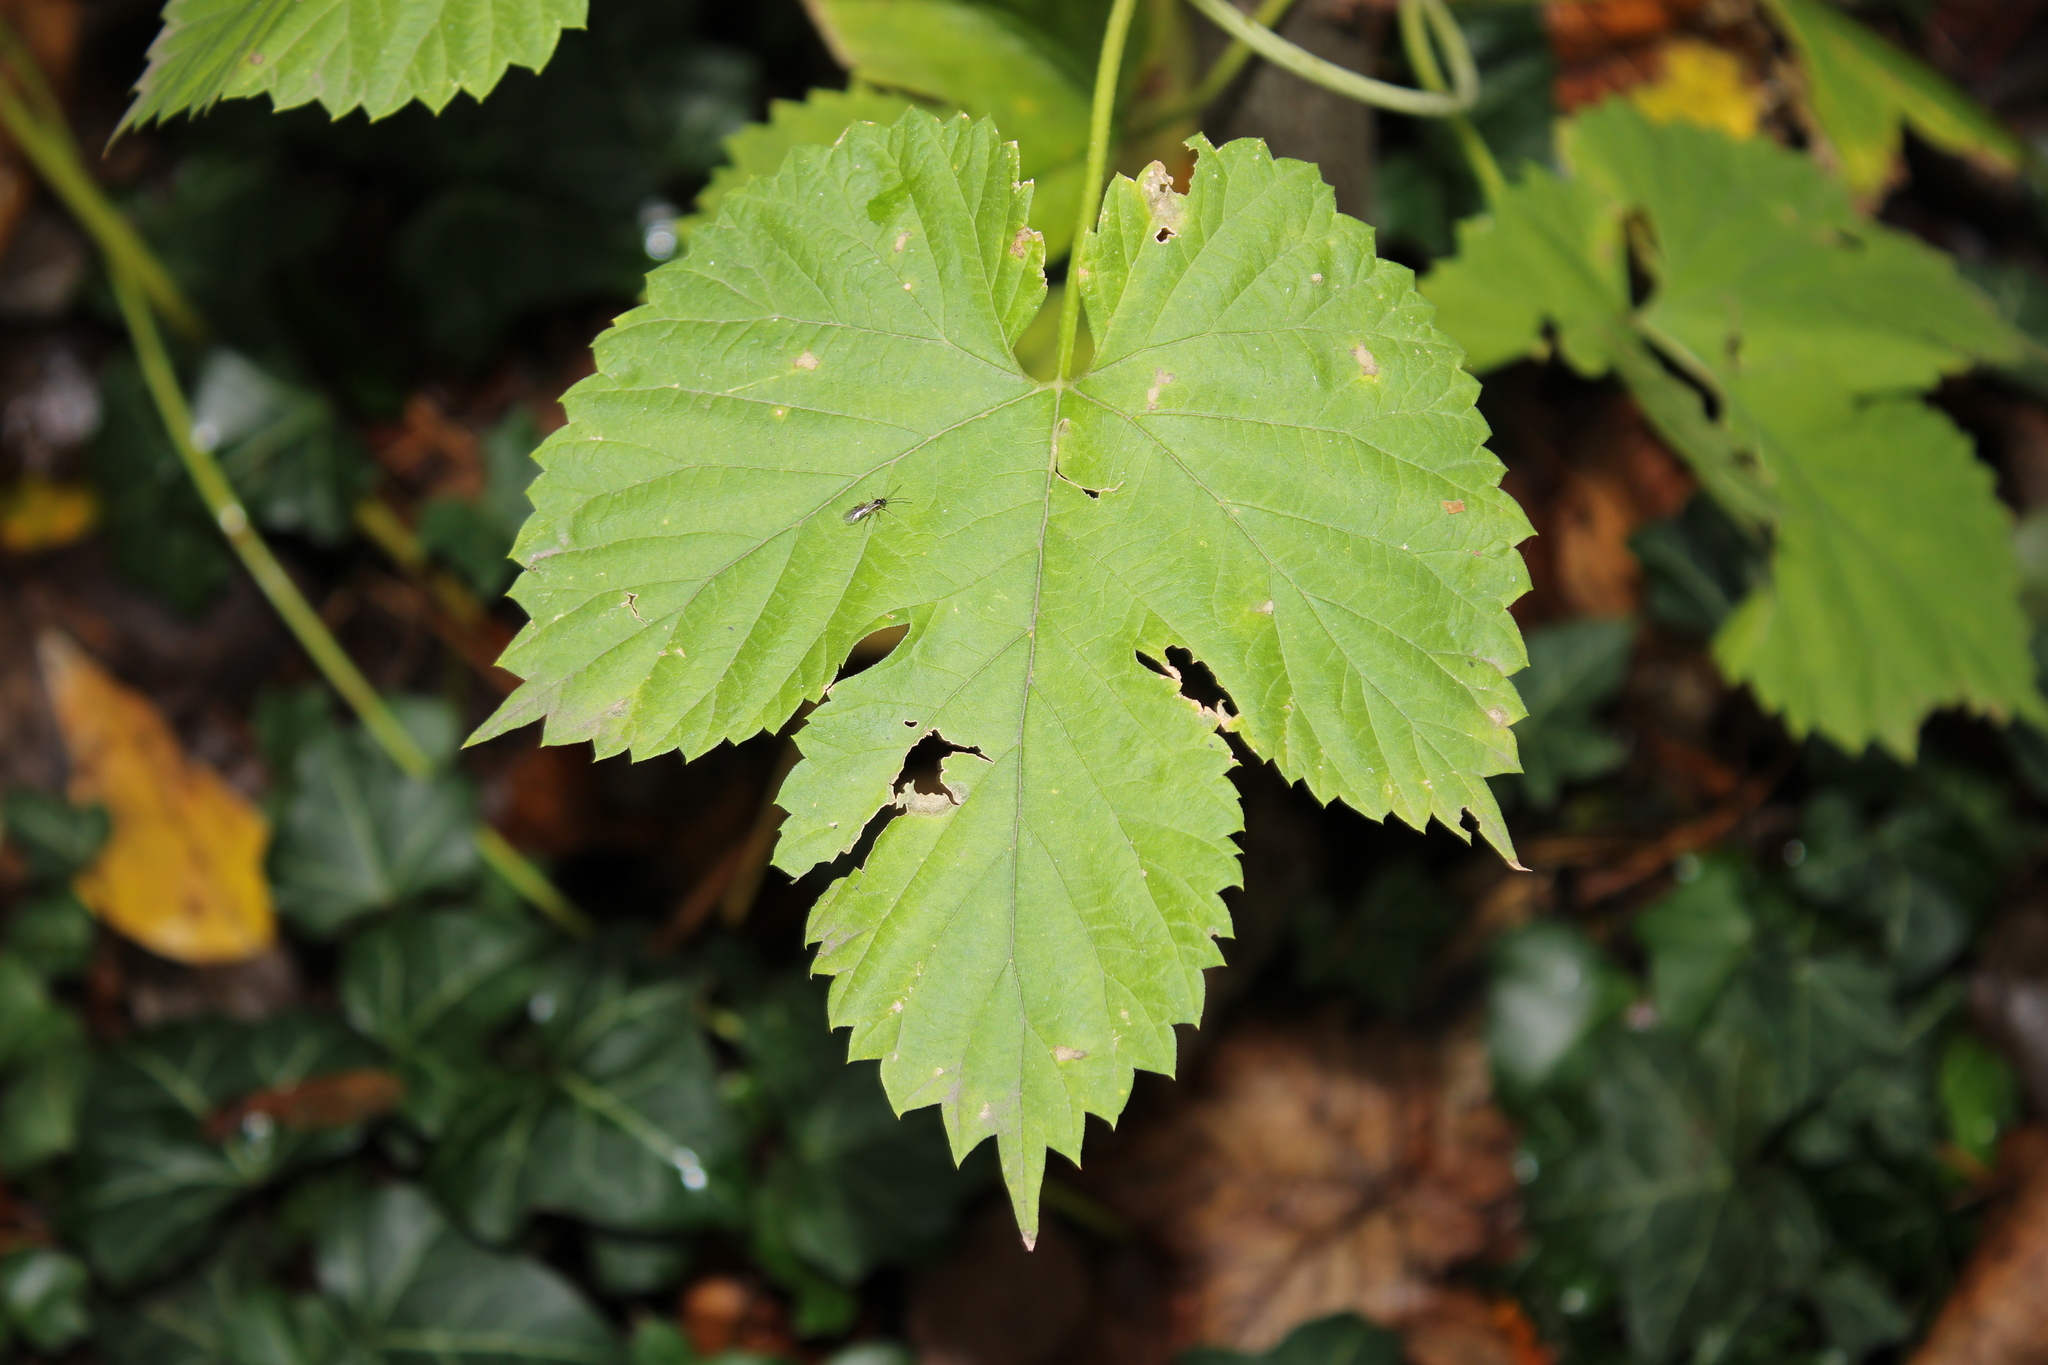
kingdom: Plantae
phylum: Tracheophyta
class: Magnoliopsida
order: Rosales
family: Cannabaceae
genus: Humulus
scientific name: Humulus lupulus
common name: Hop
